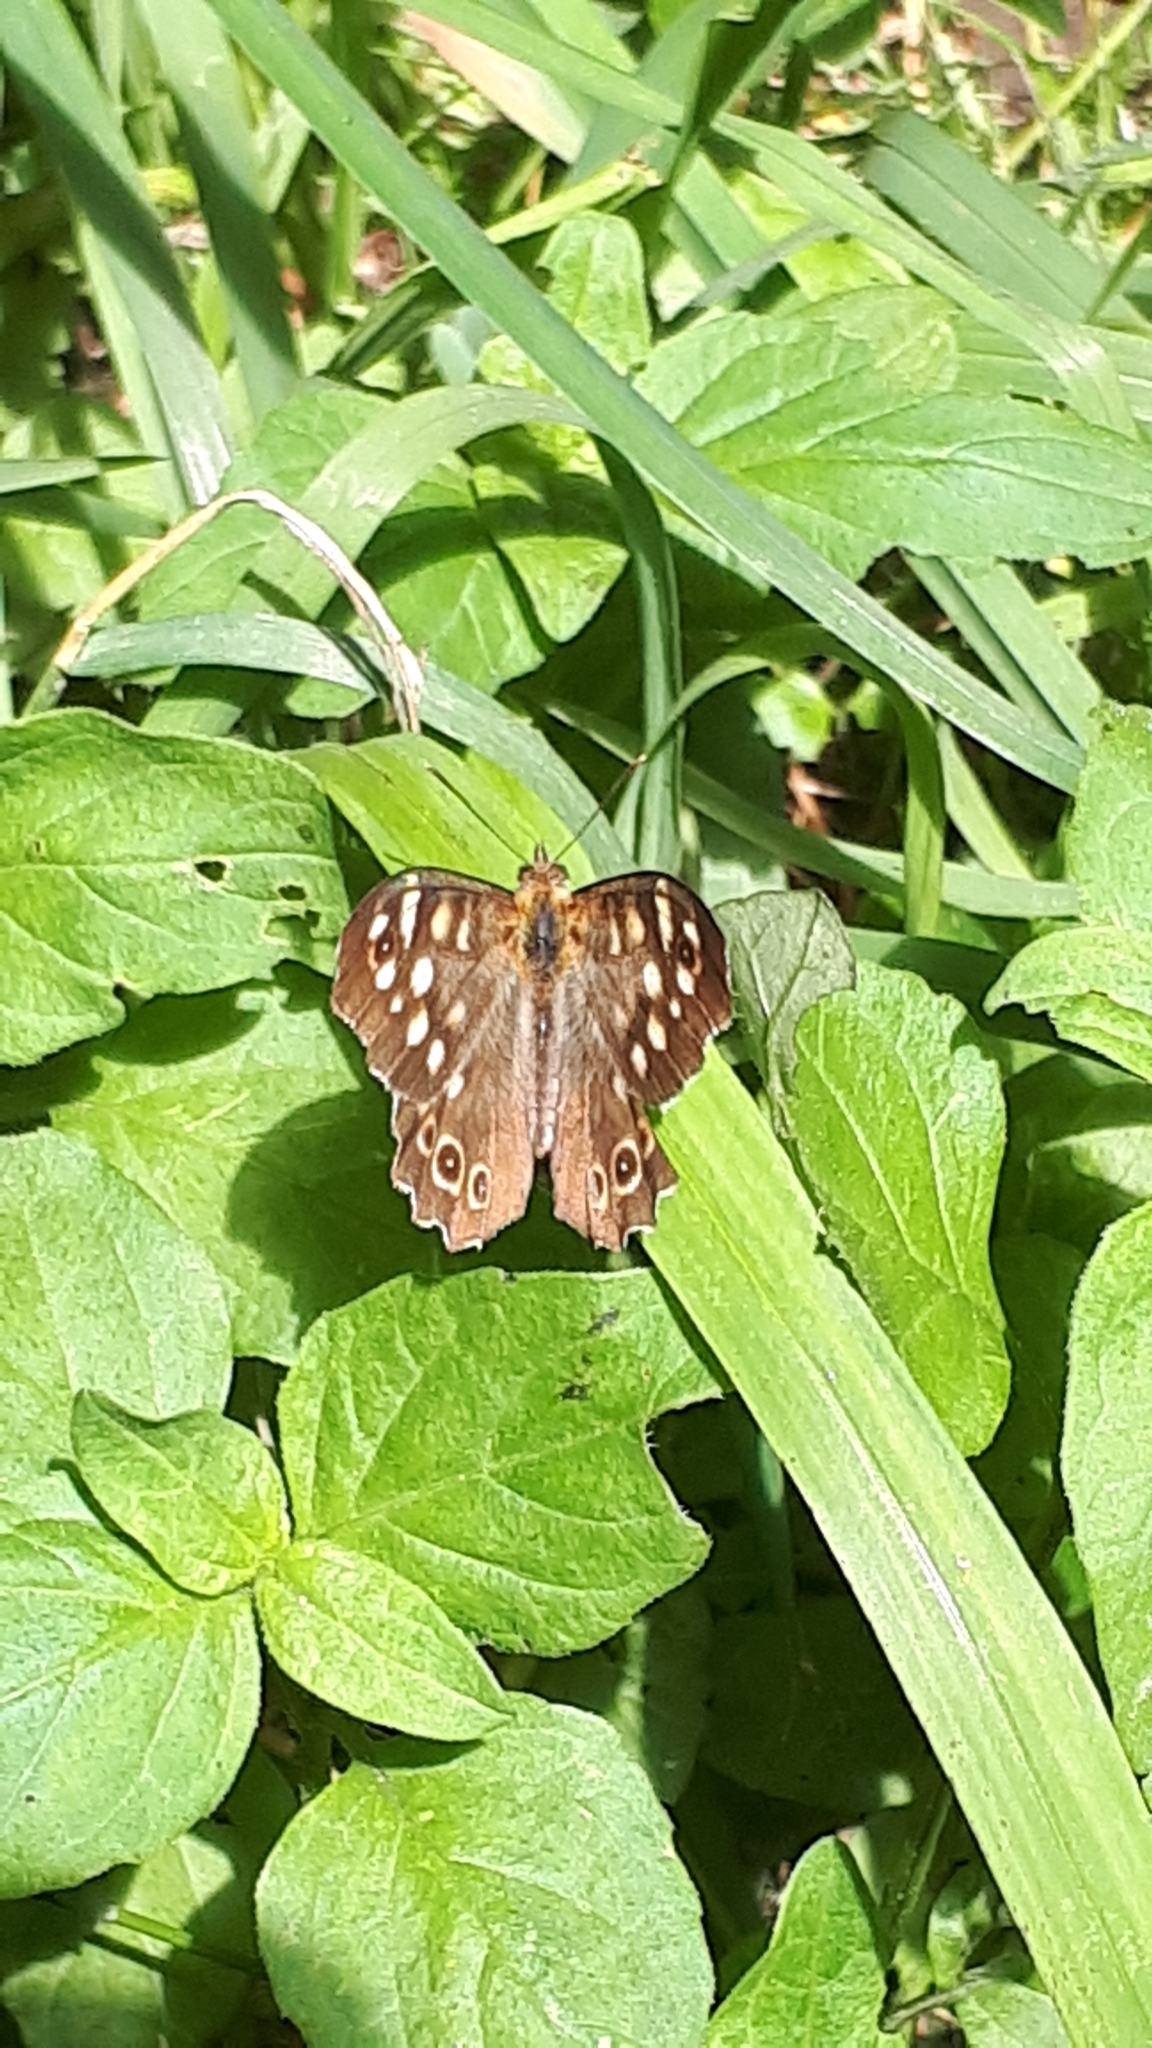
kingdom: Animalia
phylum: Arthropoda
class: Insecta
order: Lepidoptera
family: Nymphalidae
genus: Pararge
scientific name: Pararge aegeria
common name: Speckled wood
